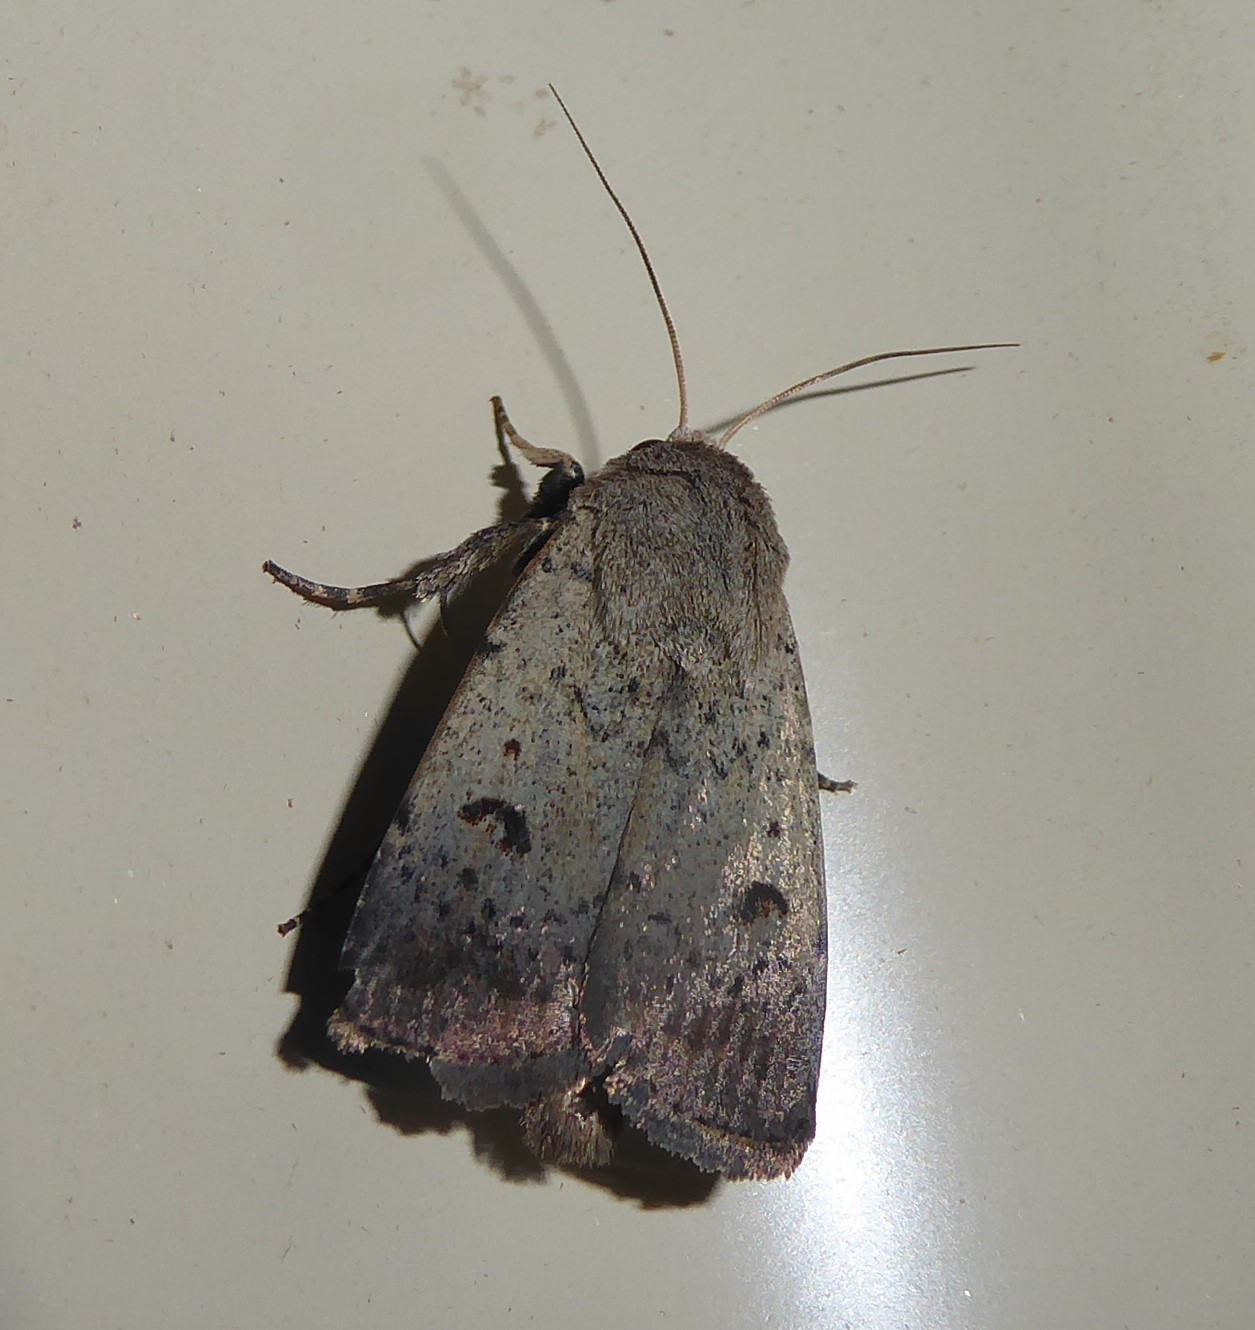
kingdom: Animalia
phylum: Arthropoda
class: Insecta
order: Lepidoptera
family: Noctuidae
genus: Proteuxoa
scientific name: Proteuxoa tibiata
